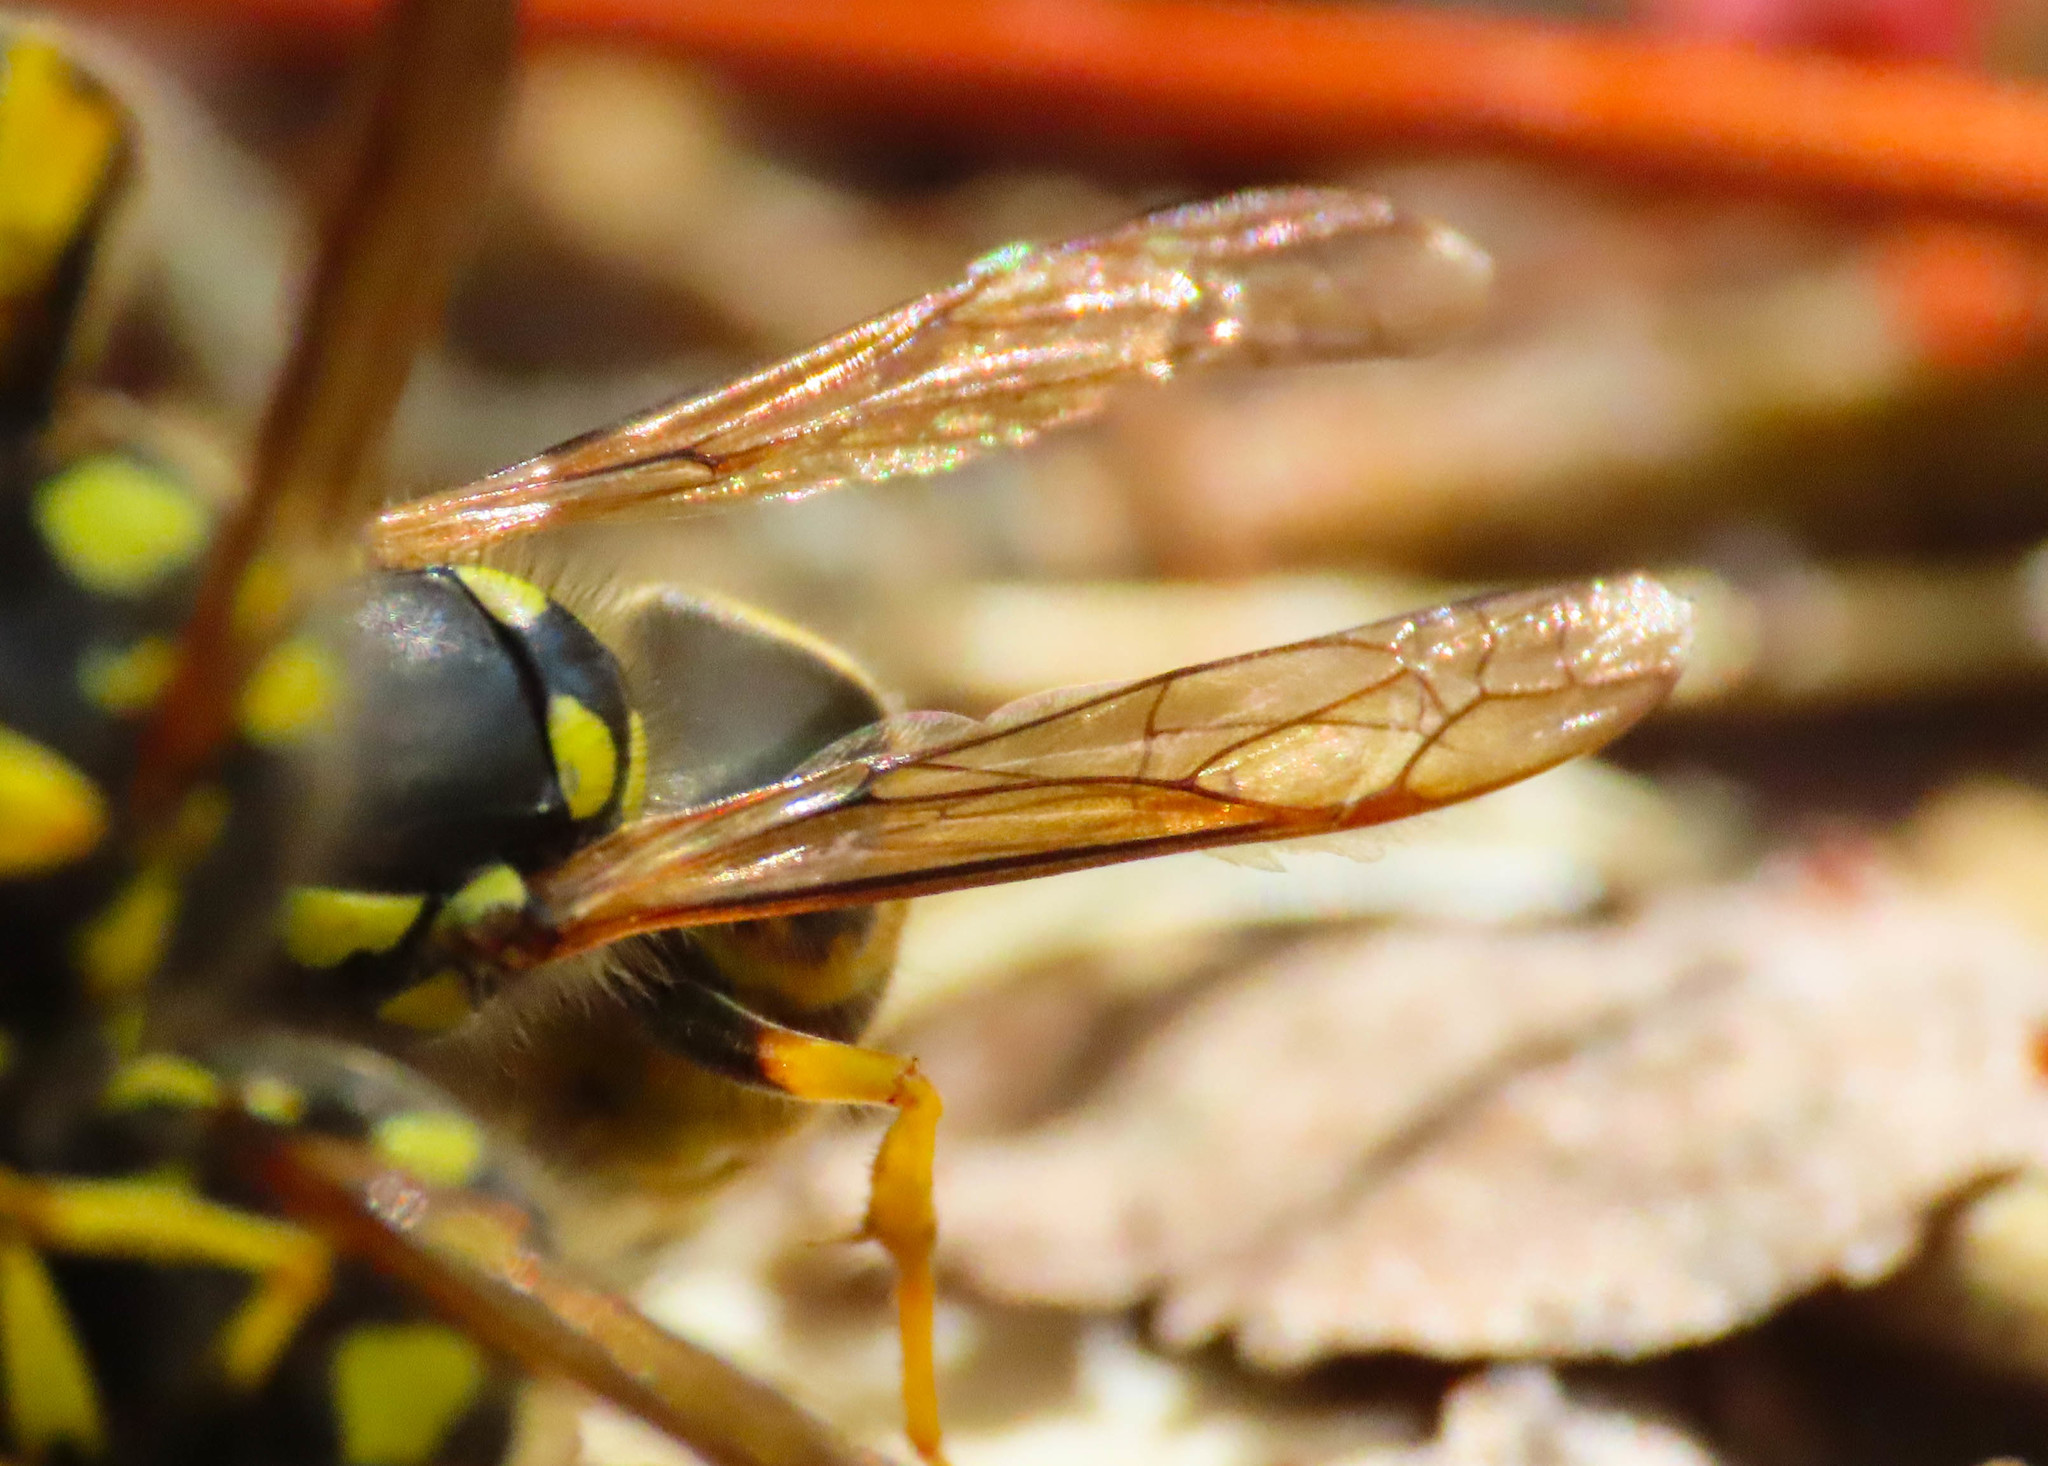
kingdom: Animalia
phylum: Arthropoda
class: Insecta
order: Hymenoptera
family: Vespidae
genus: Vespula
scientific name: Vespula germanica
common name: German wasp
